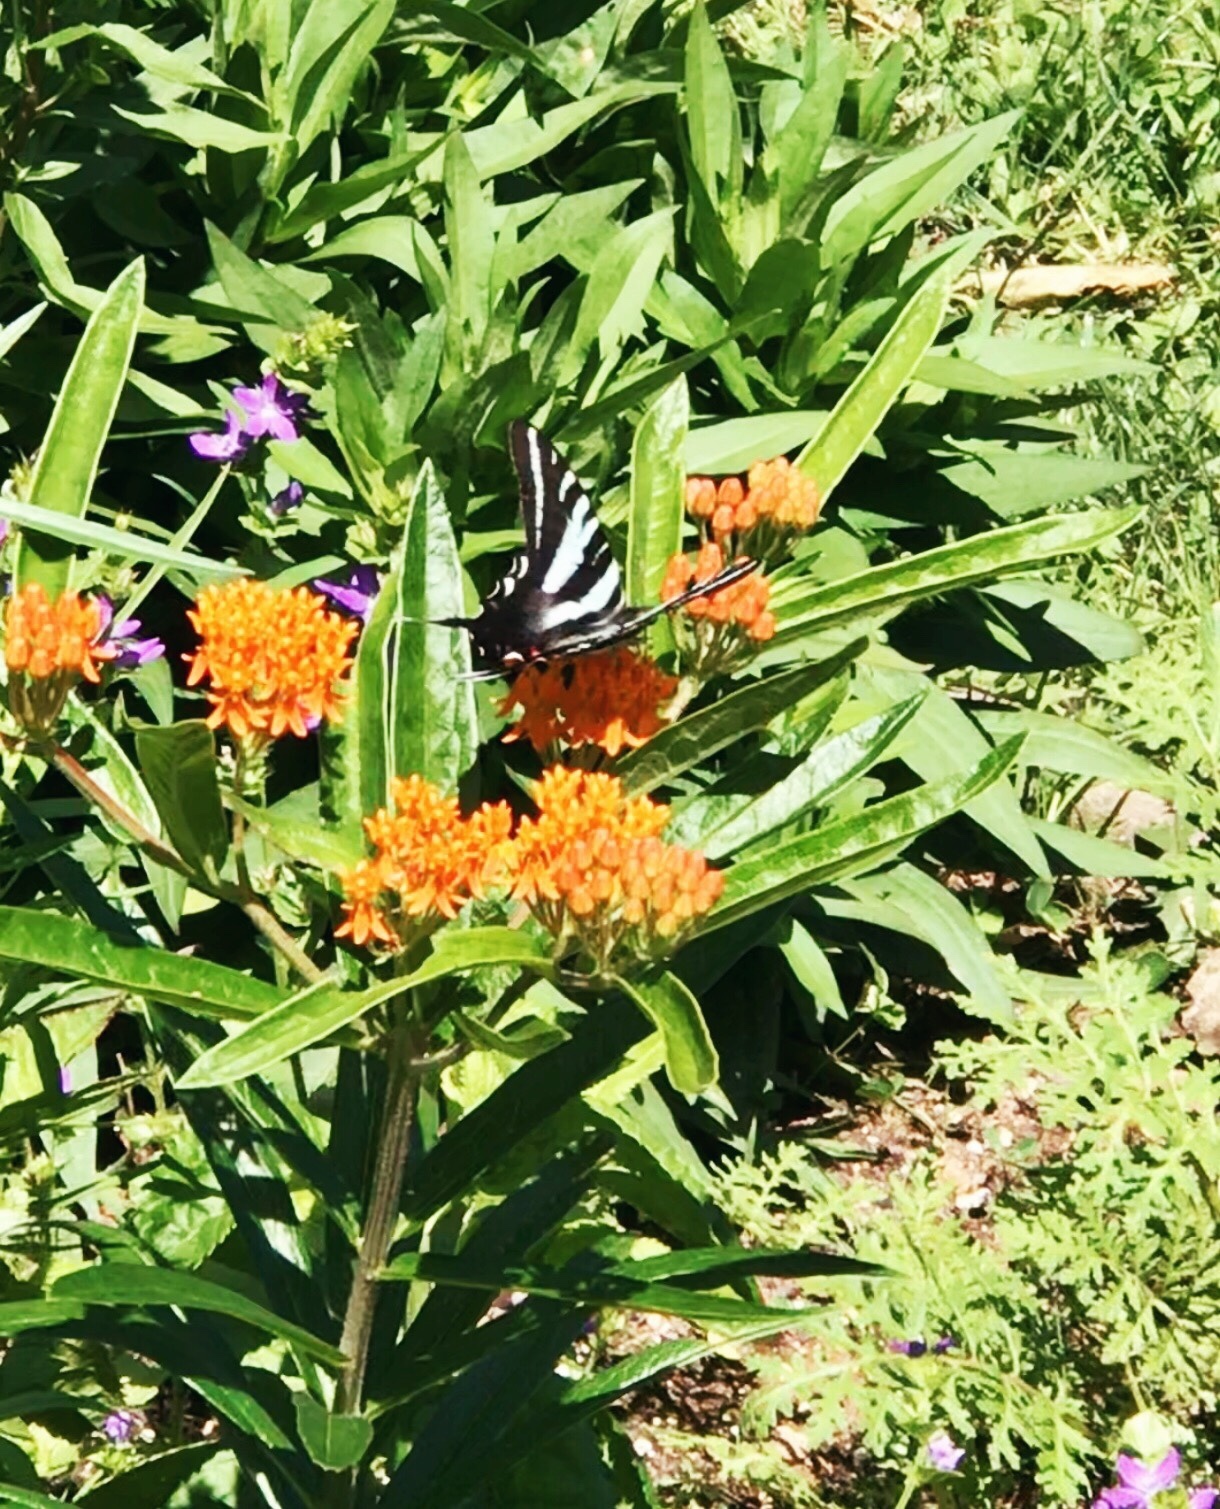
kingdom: Animalia
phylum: Arthropoda
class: Insecta
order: Lepidoptera
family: Papilionidae
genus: Protographium
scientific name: Protographium marcellus
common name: Zebra swallowtail
